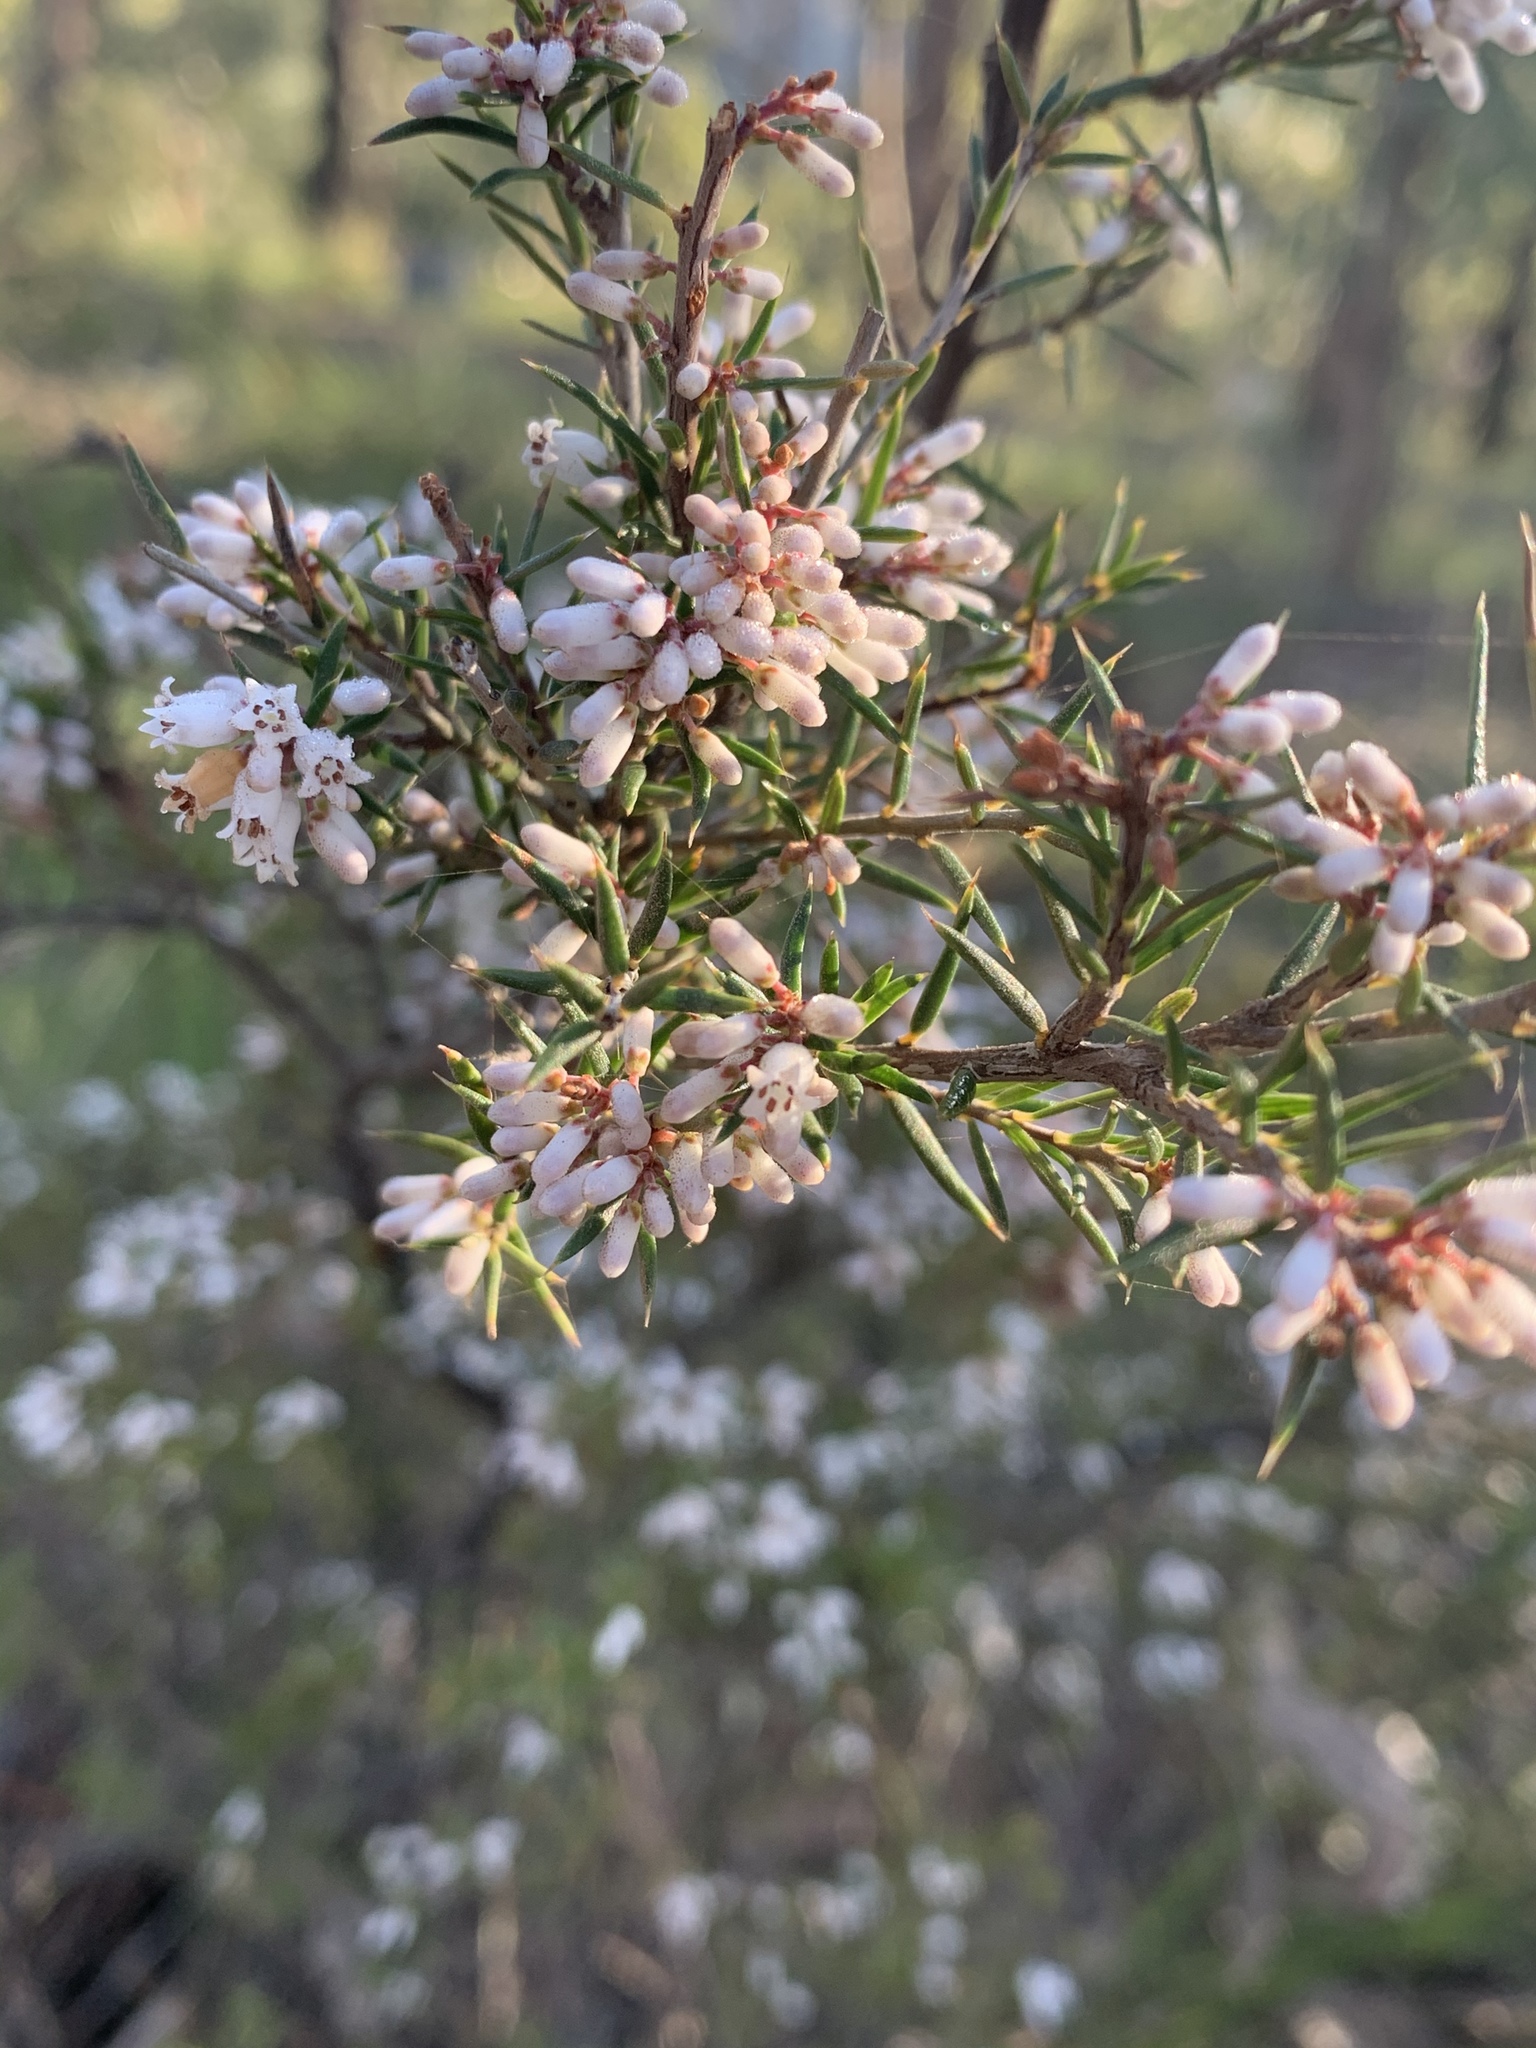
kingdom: Plantae
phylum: Tracheophyta
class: Magnoliopsida
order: Ericales
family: Ericaceae
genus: Lissanthe
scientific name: Lissanthe strigosa
